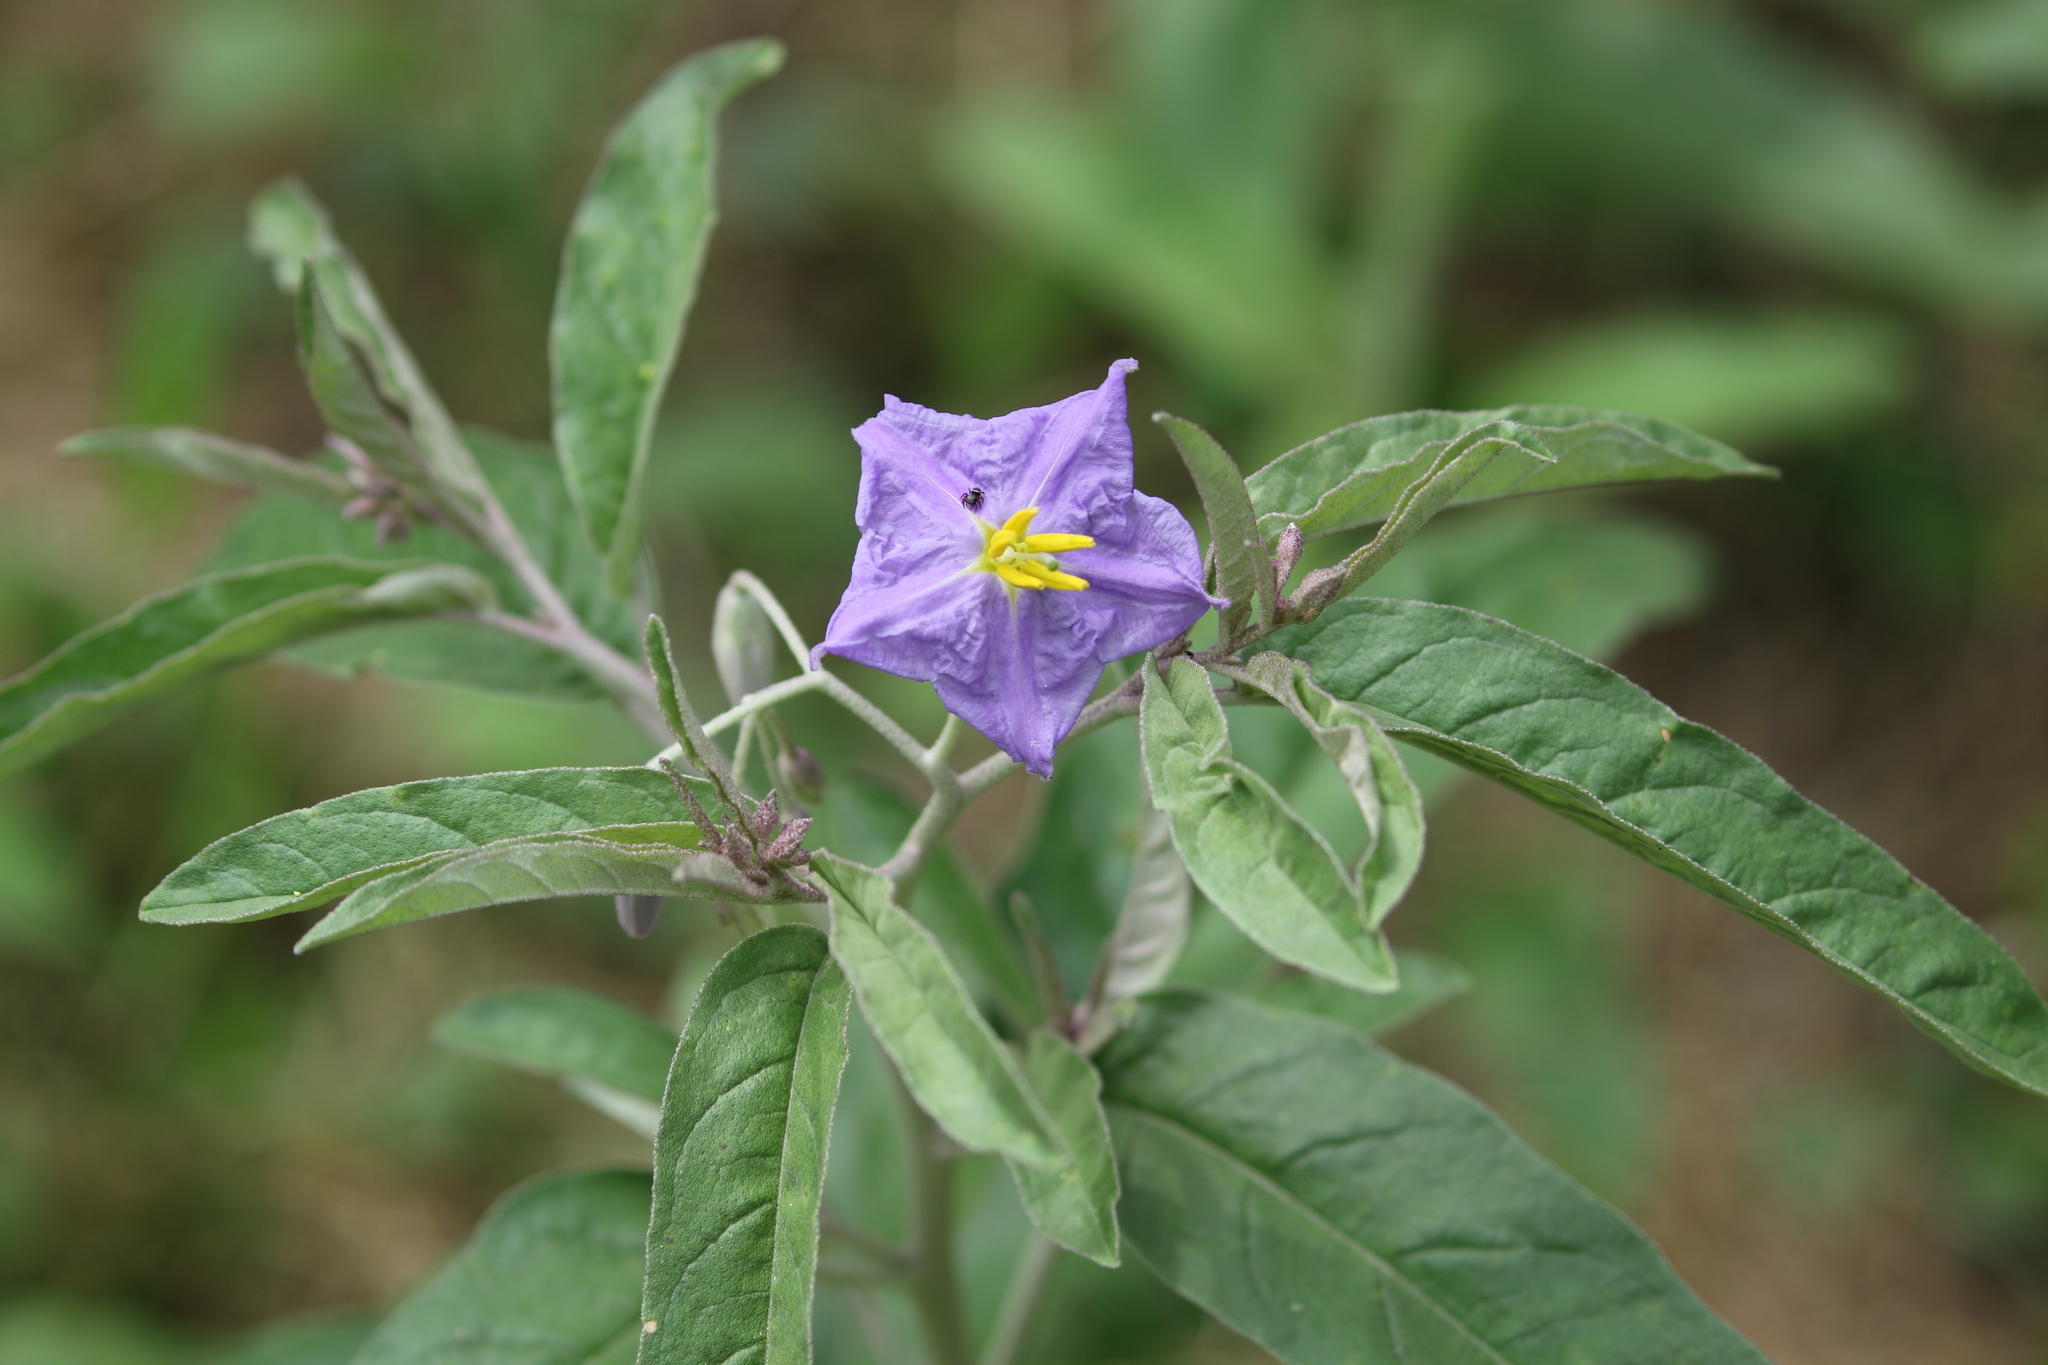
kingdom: Plantae
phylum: Tracheophyta
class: Magnoliopsida
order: Solanales
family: Solanaceae
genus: Solanum
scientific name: Solanum elaeagnifolium
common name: Silverleaf nightshade
